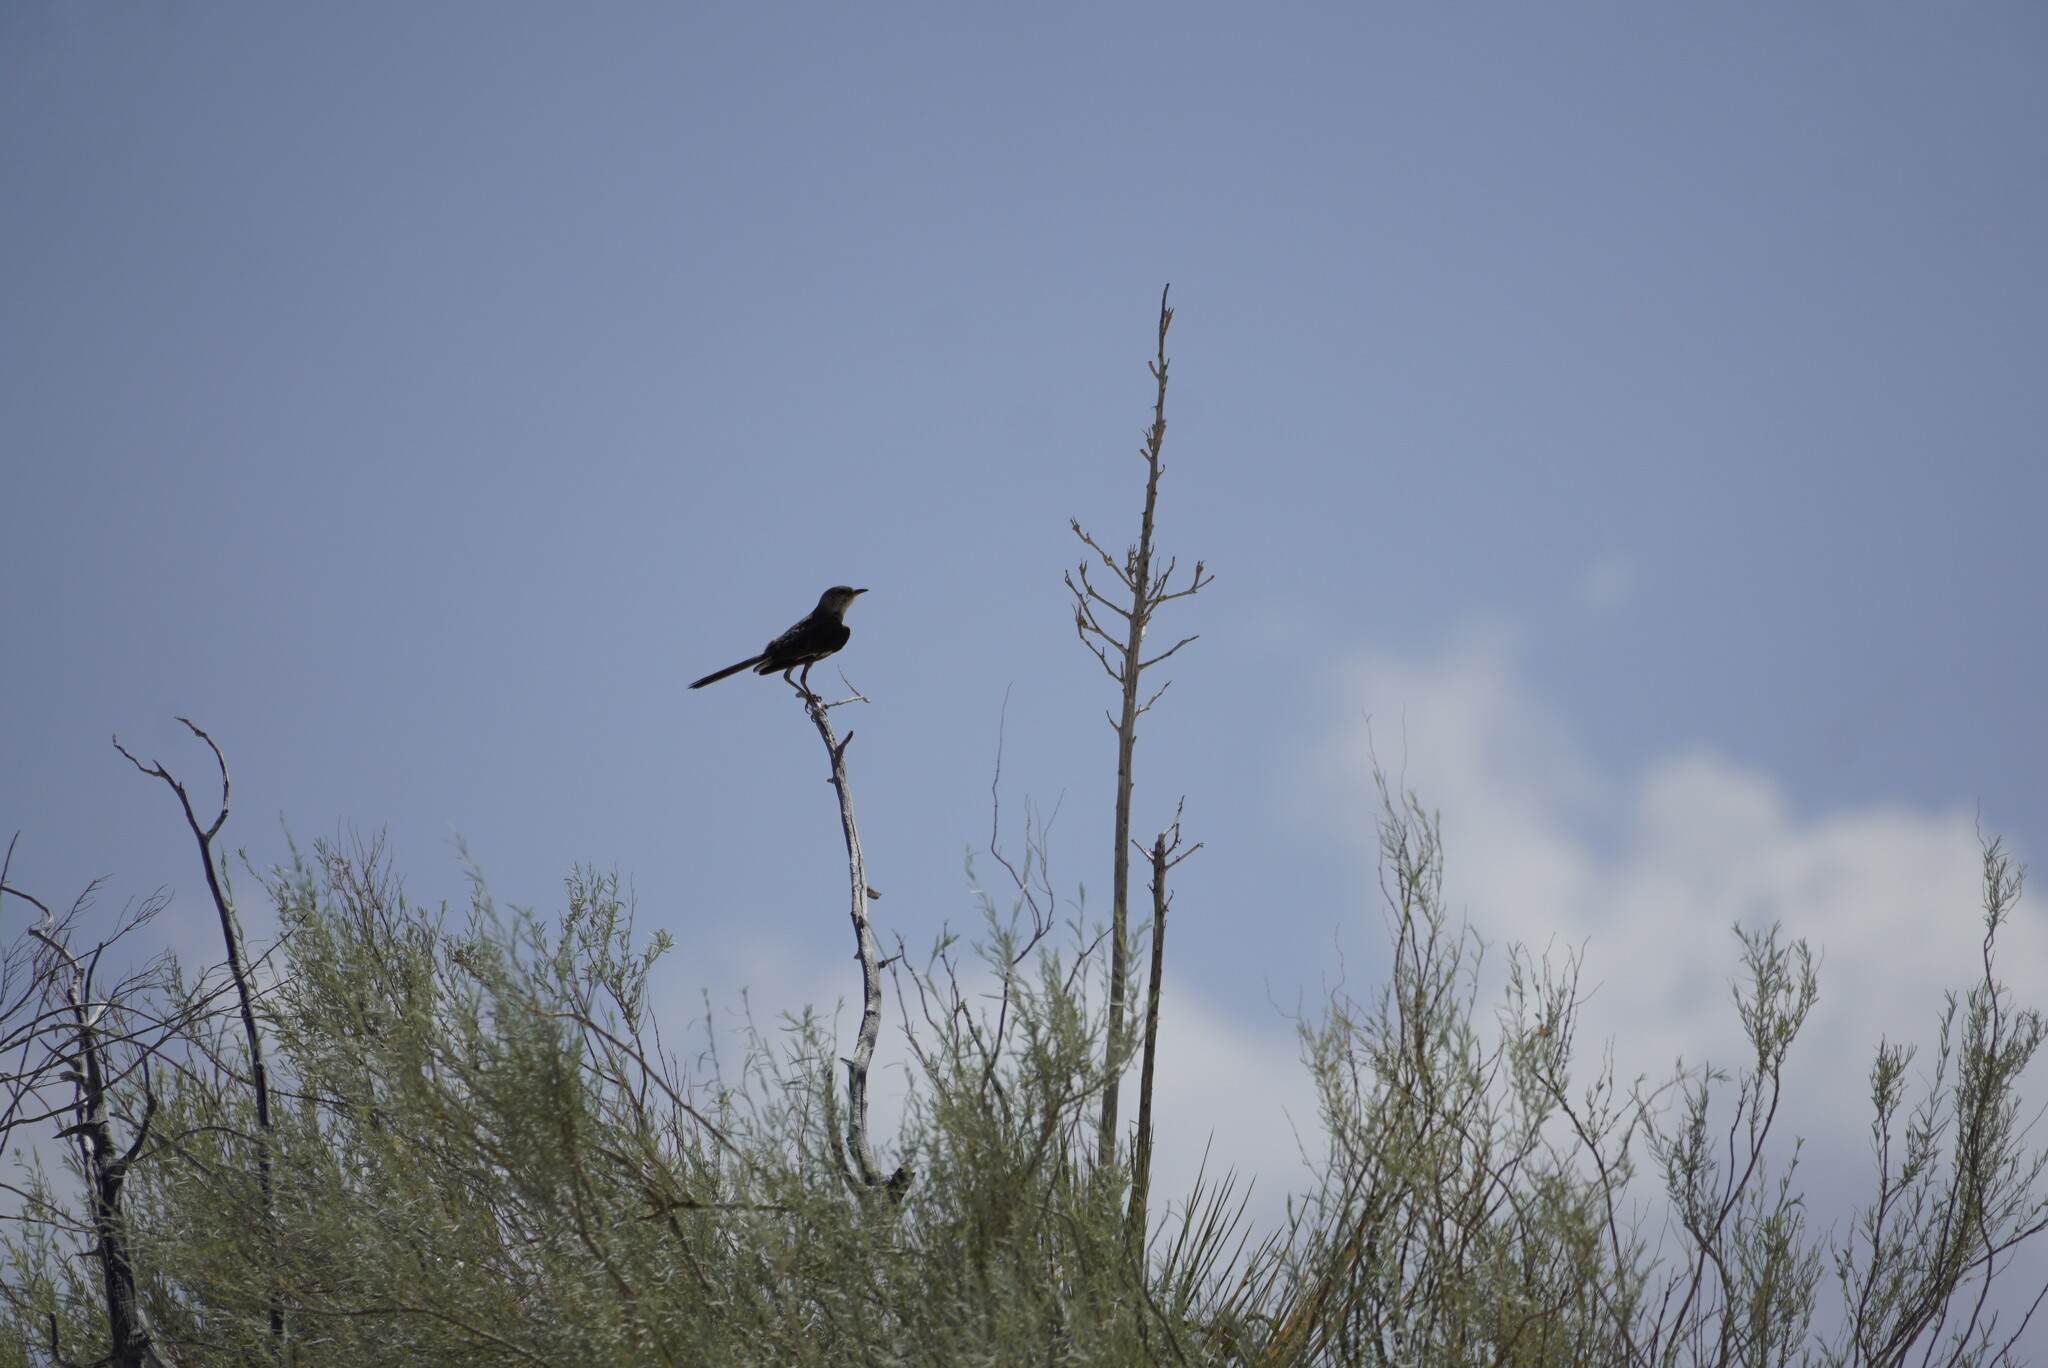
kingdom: Animalia
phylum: Chordata
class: Aves
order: Passeriformes
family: Mimidae
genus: Mimus
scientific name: Mimus polyglottos
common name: Northern mockingbird
